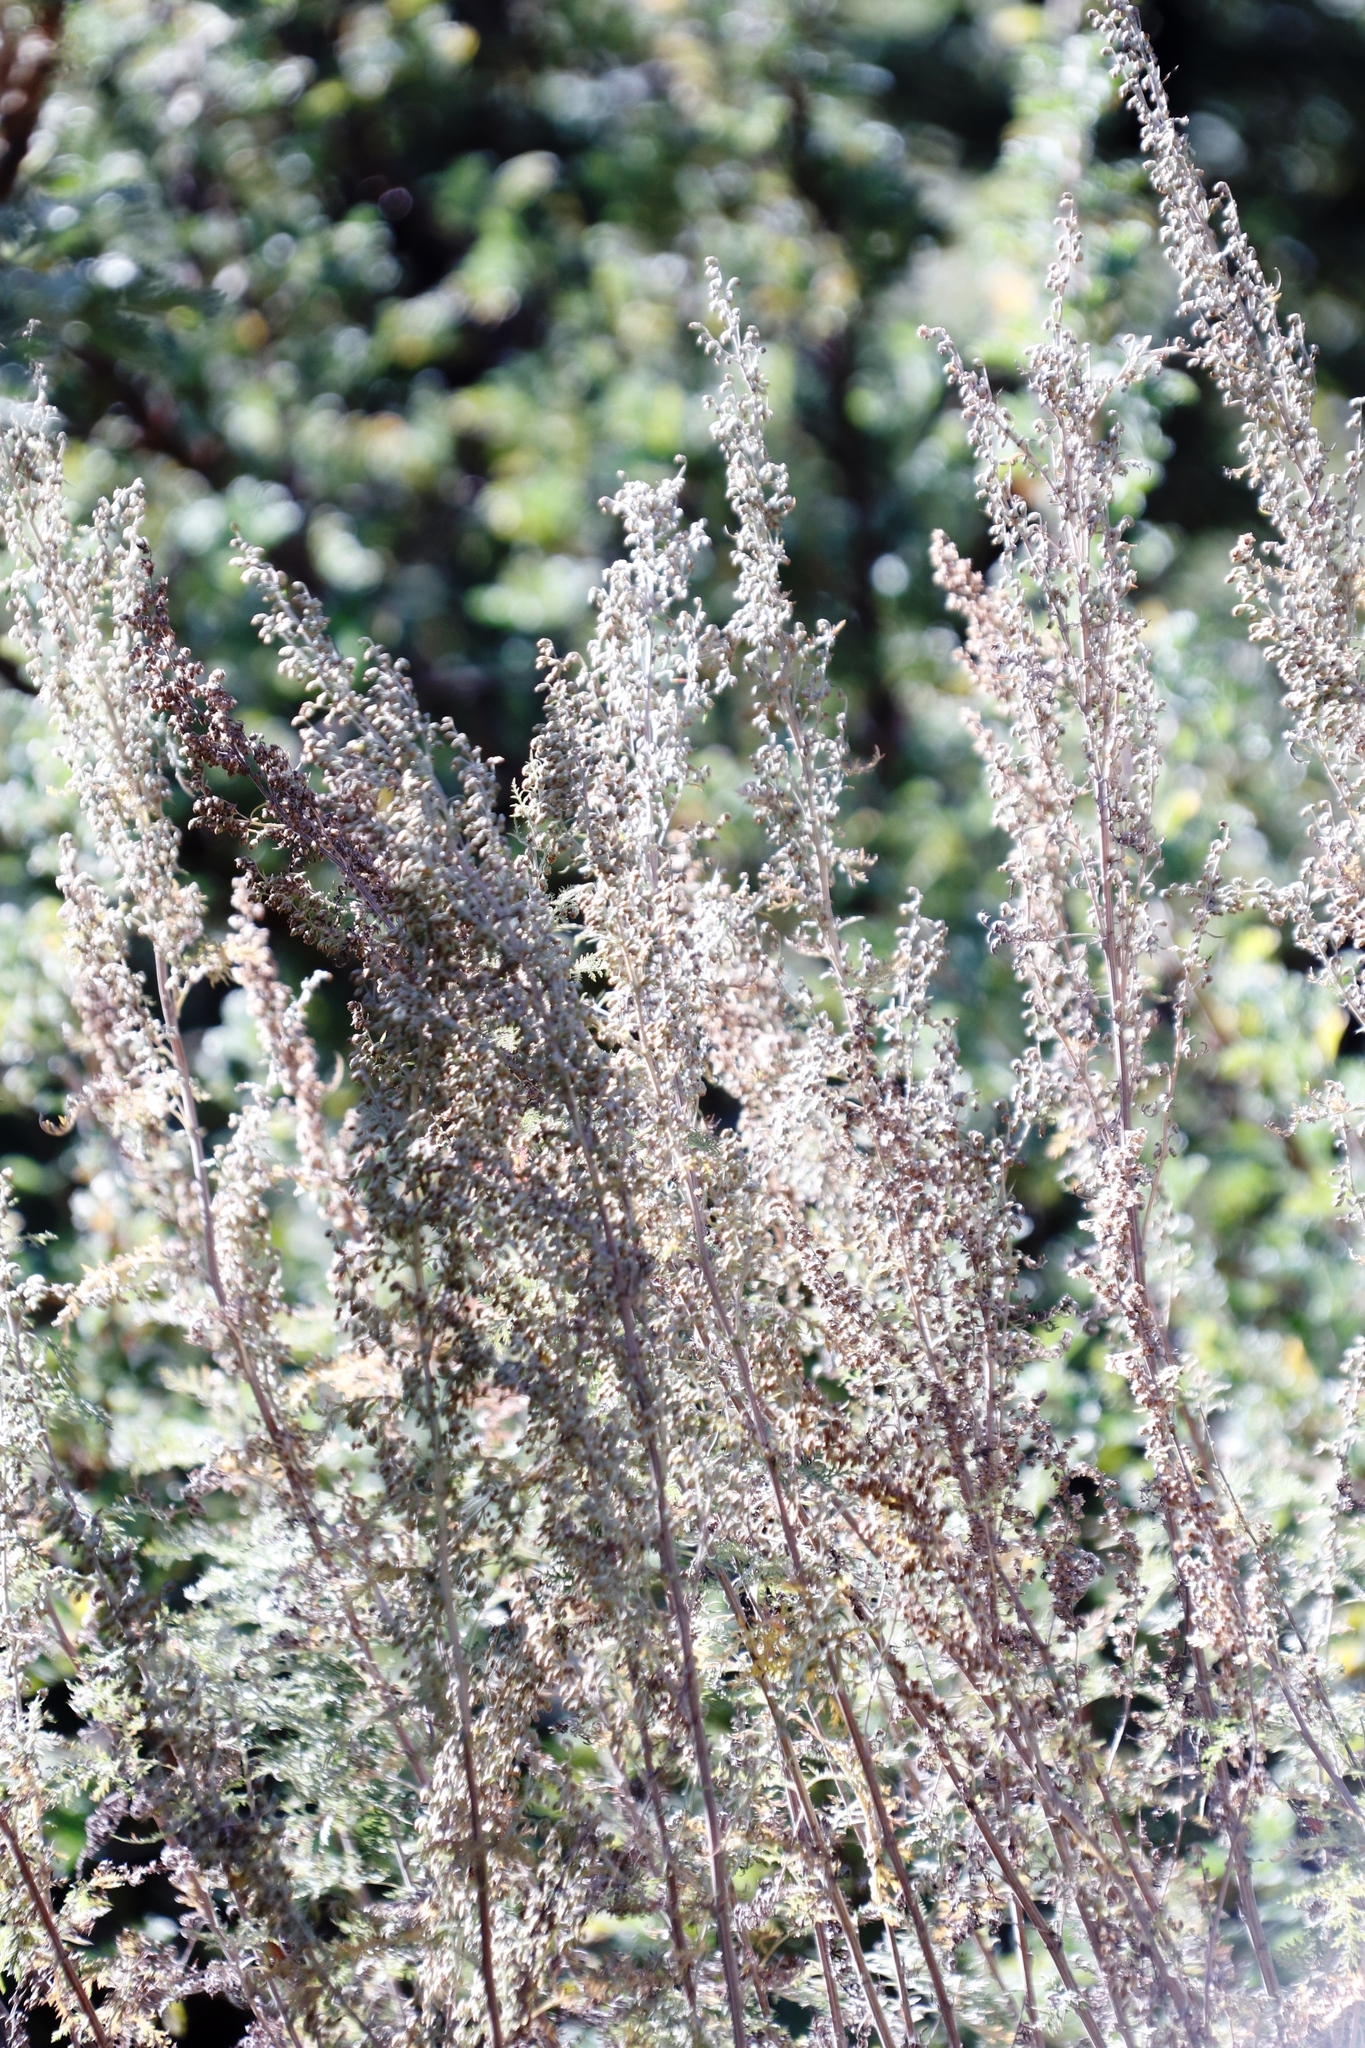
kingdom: Plantae
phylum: Tracheophyta
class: Magnoliopsida
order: Asterales
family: Asteraceae
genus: Artemisia
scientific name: Artemisia afra
